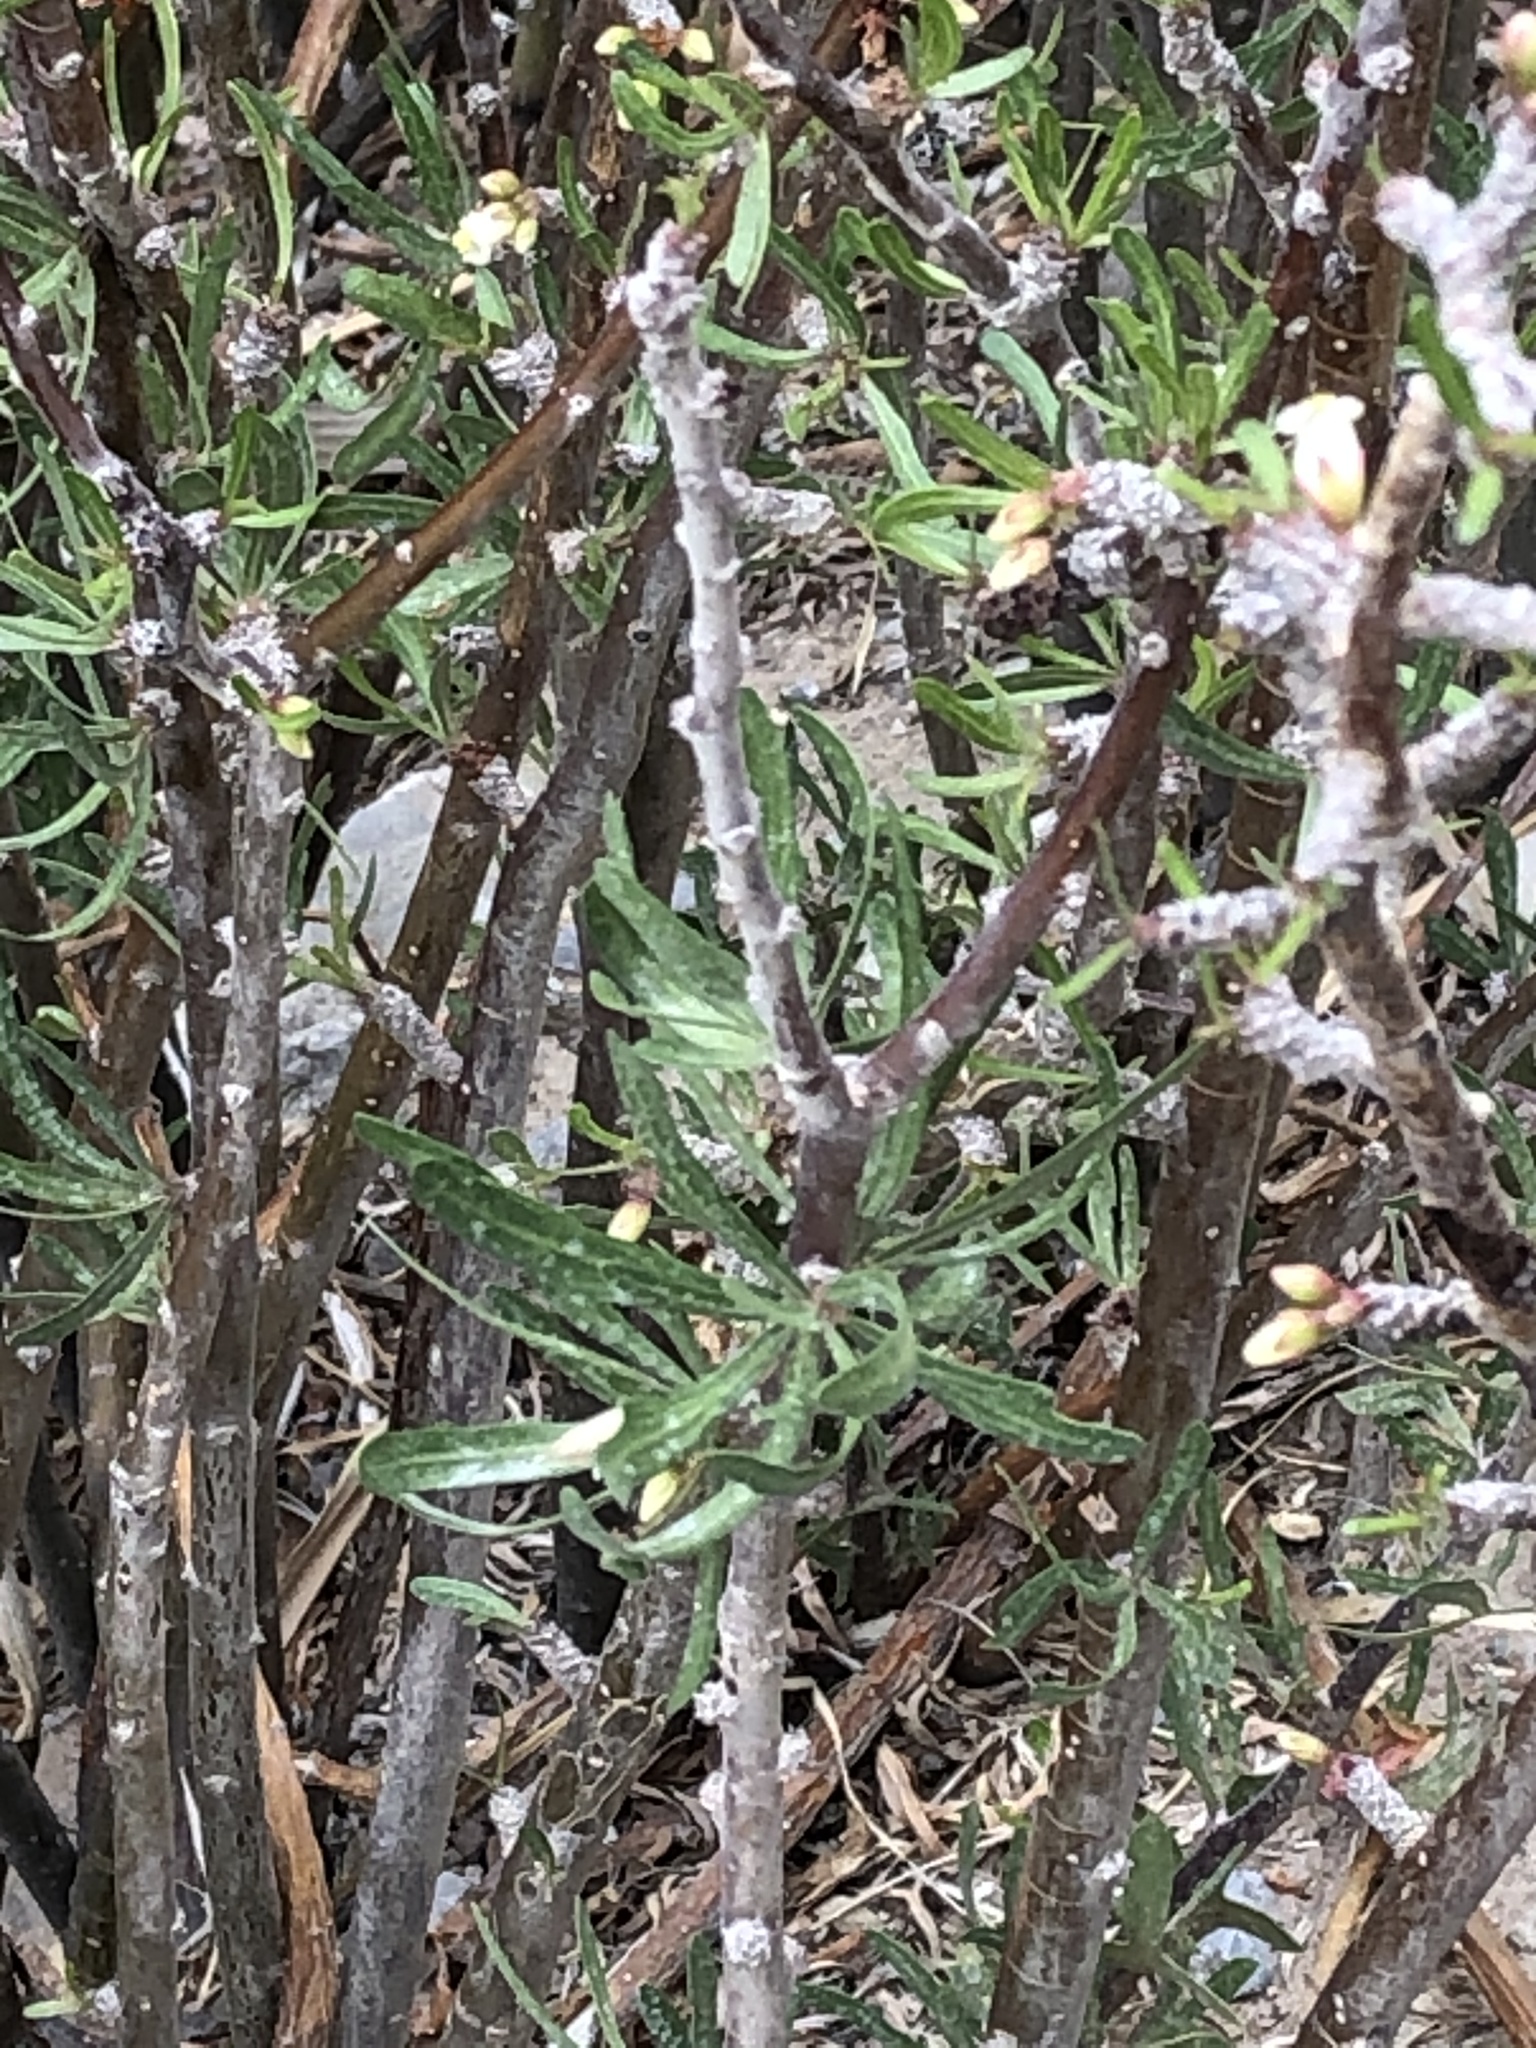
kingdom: Plantae
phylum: Tracheophyta
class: Magnoliopsida
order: Malpighiales
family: Euphorbiaceae
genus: Jatropha
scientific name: Jatropha dioica
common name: Leatherstem
